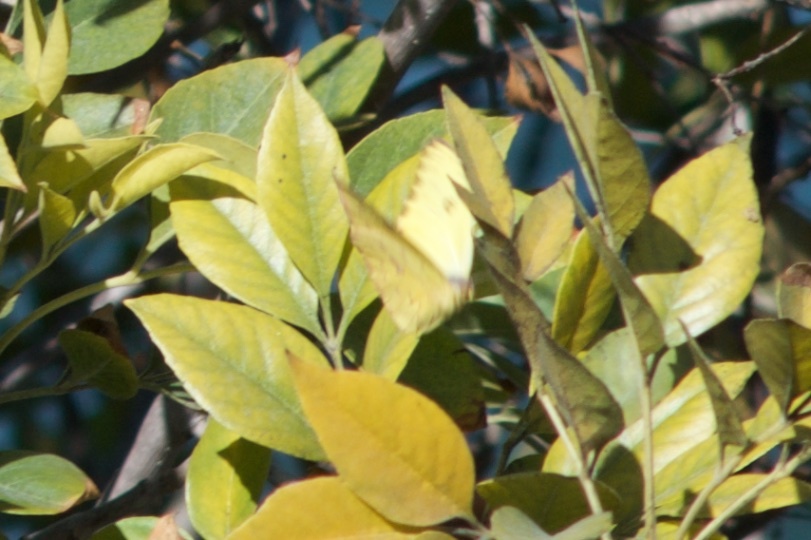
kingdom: Animalia
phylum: Arthropoda
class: Insecta
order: Lepidoptera
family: Pieridae
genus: Phoebis
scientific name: Phoebis sennae
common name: Cloudless sulphur
